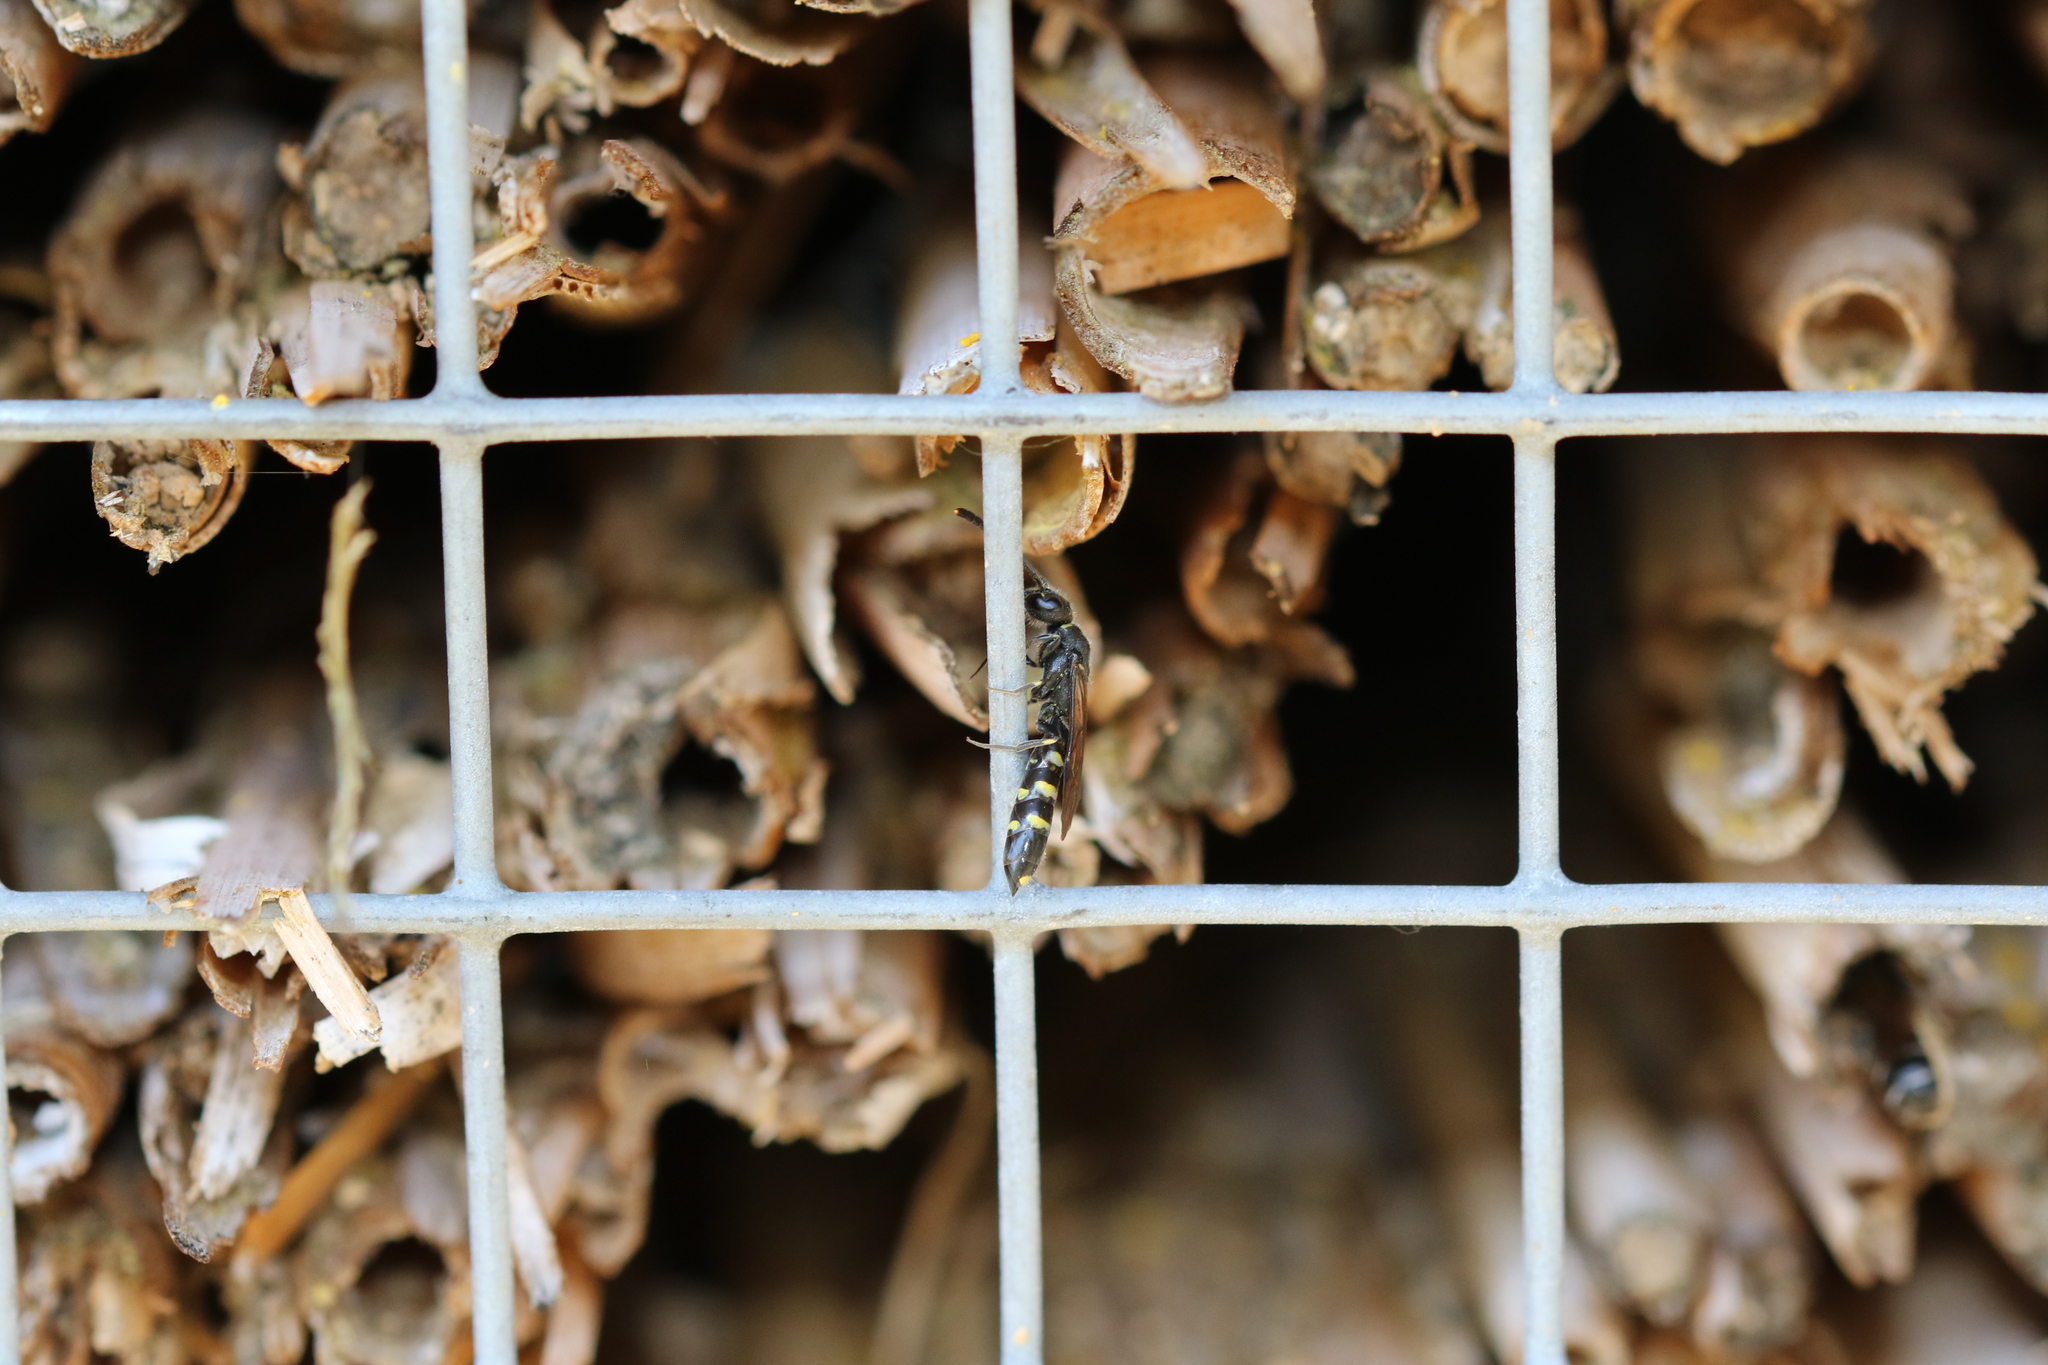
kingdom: Animalia
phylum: Arthropoda
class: Insecta
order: Hymenoptera
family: Sapygidae
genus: Monosapyga
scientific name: Monosapyga clavicornis
